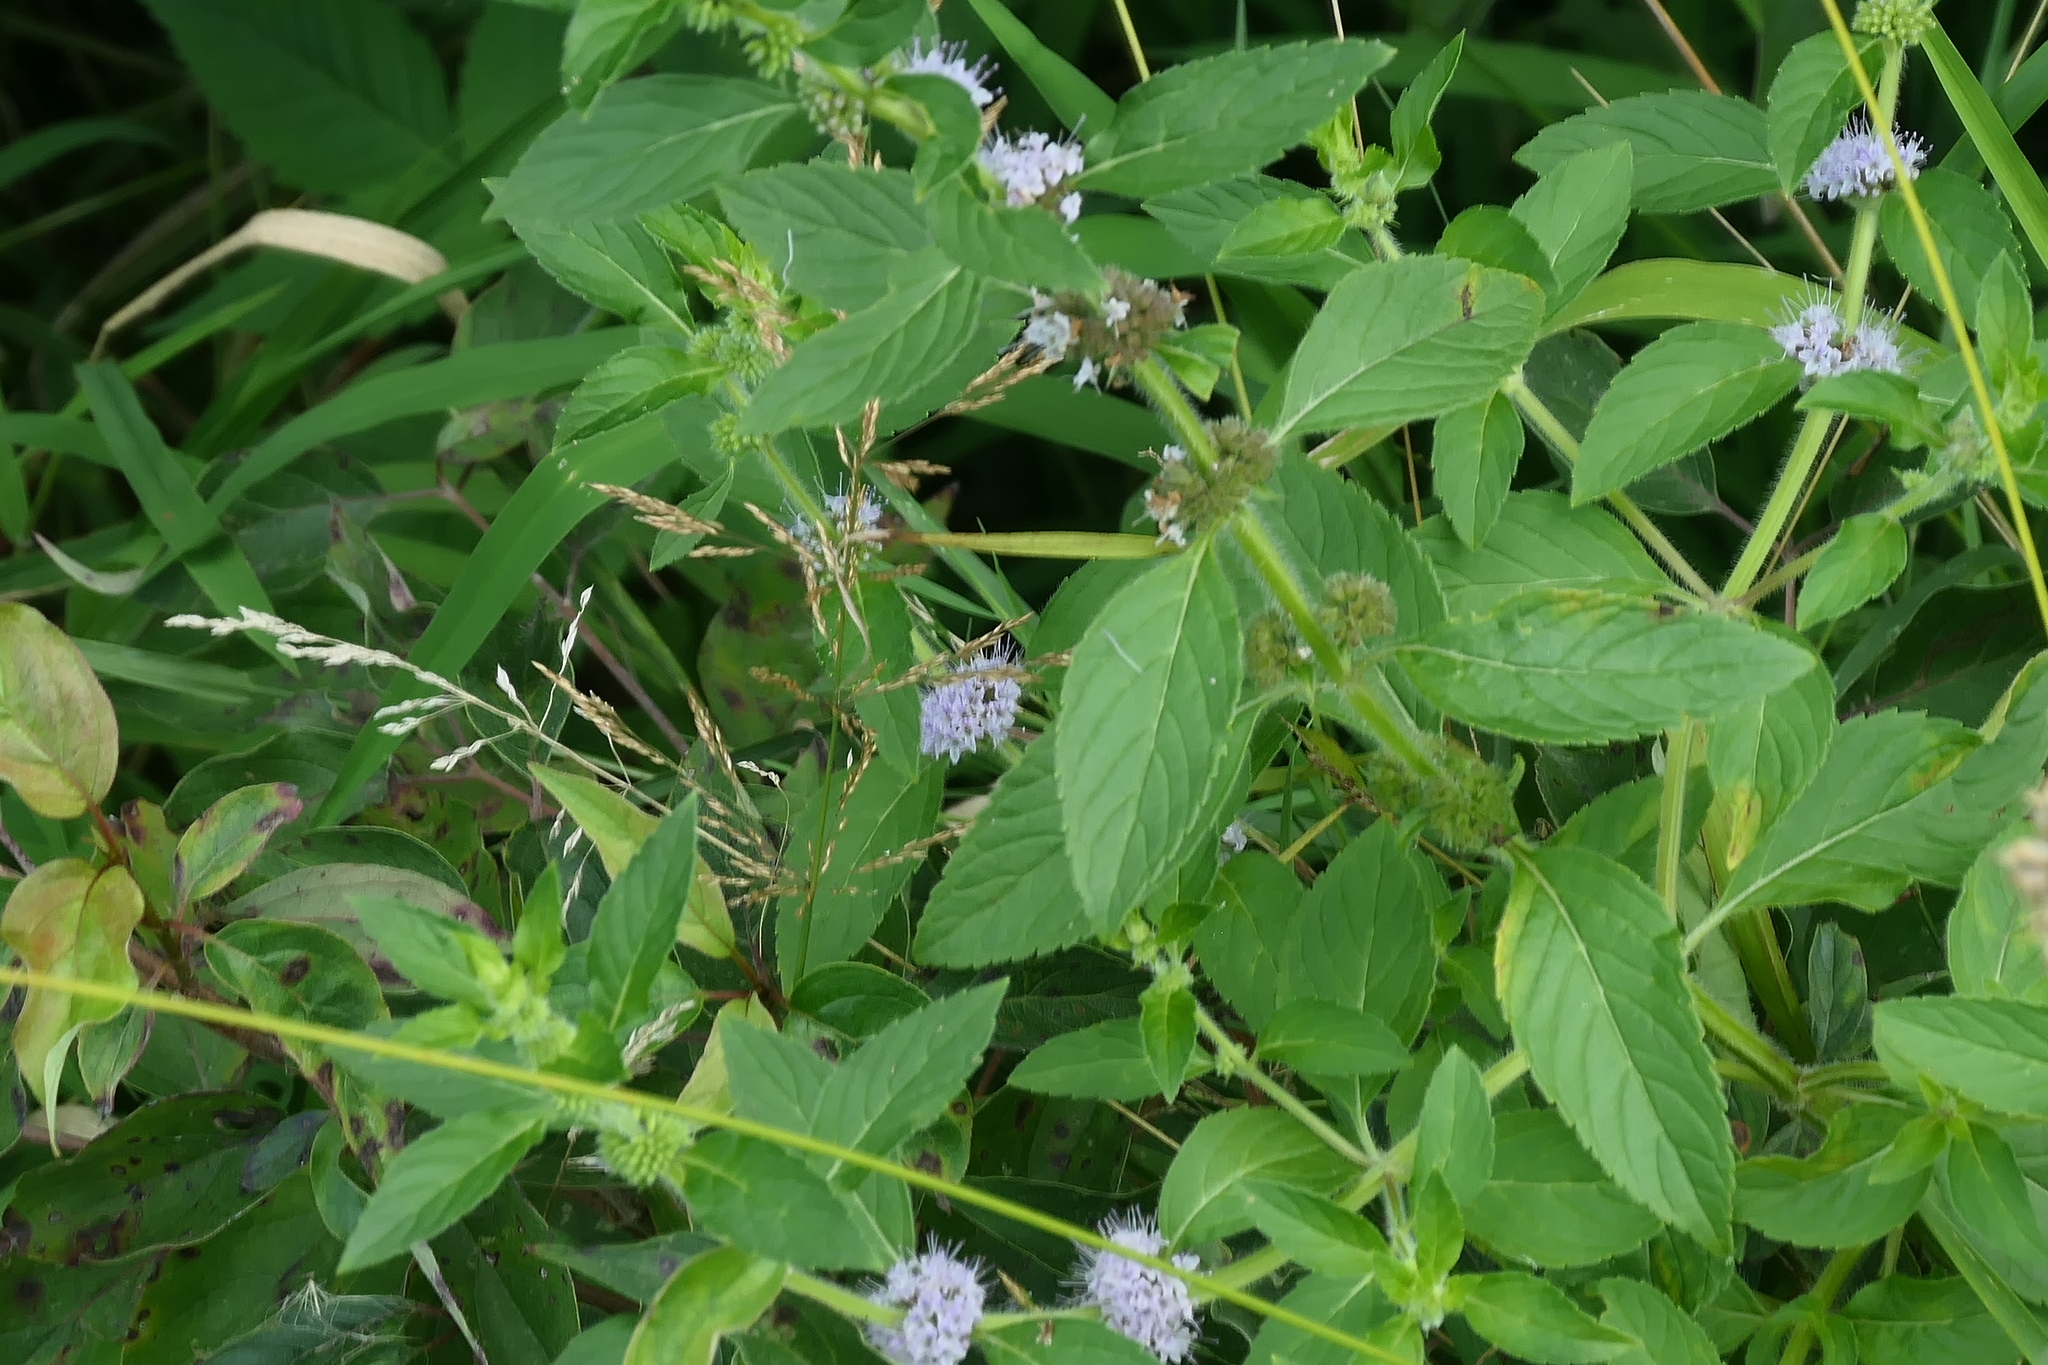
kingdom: Plantae
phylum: Tracheophyta
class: Magnoliopsida
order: Lamiales
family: Lamiaceae
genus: Mentha
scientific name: Mentha canadensis
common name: American corn mint
